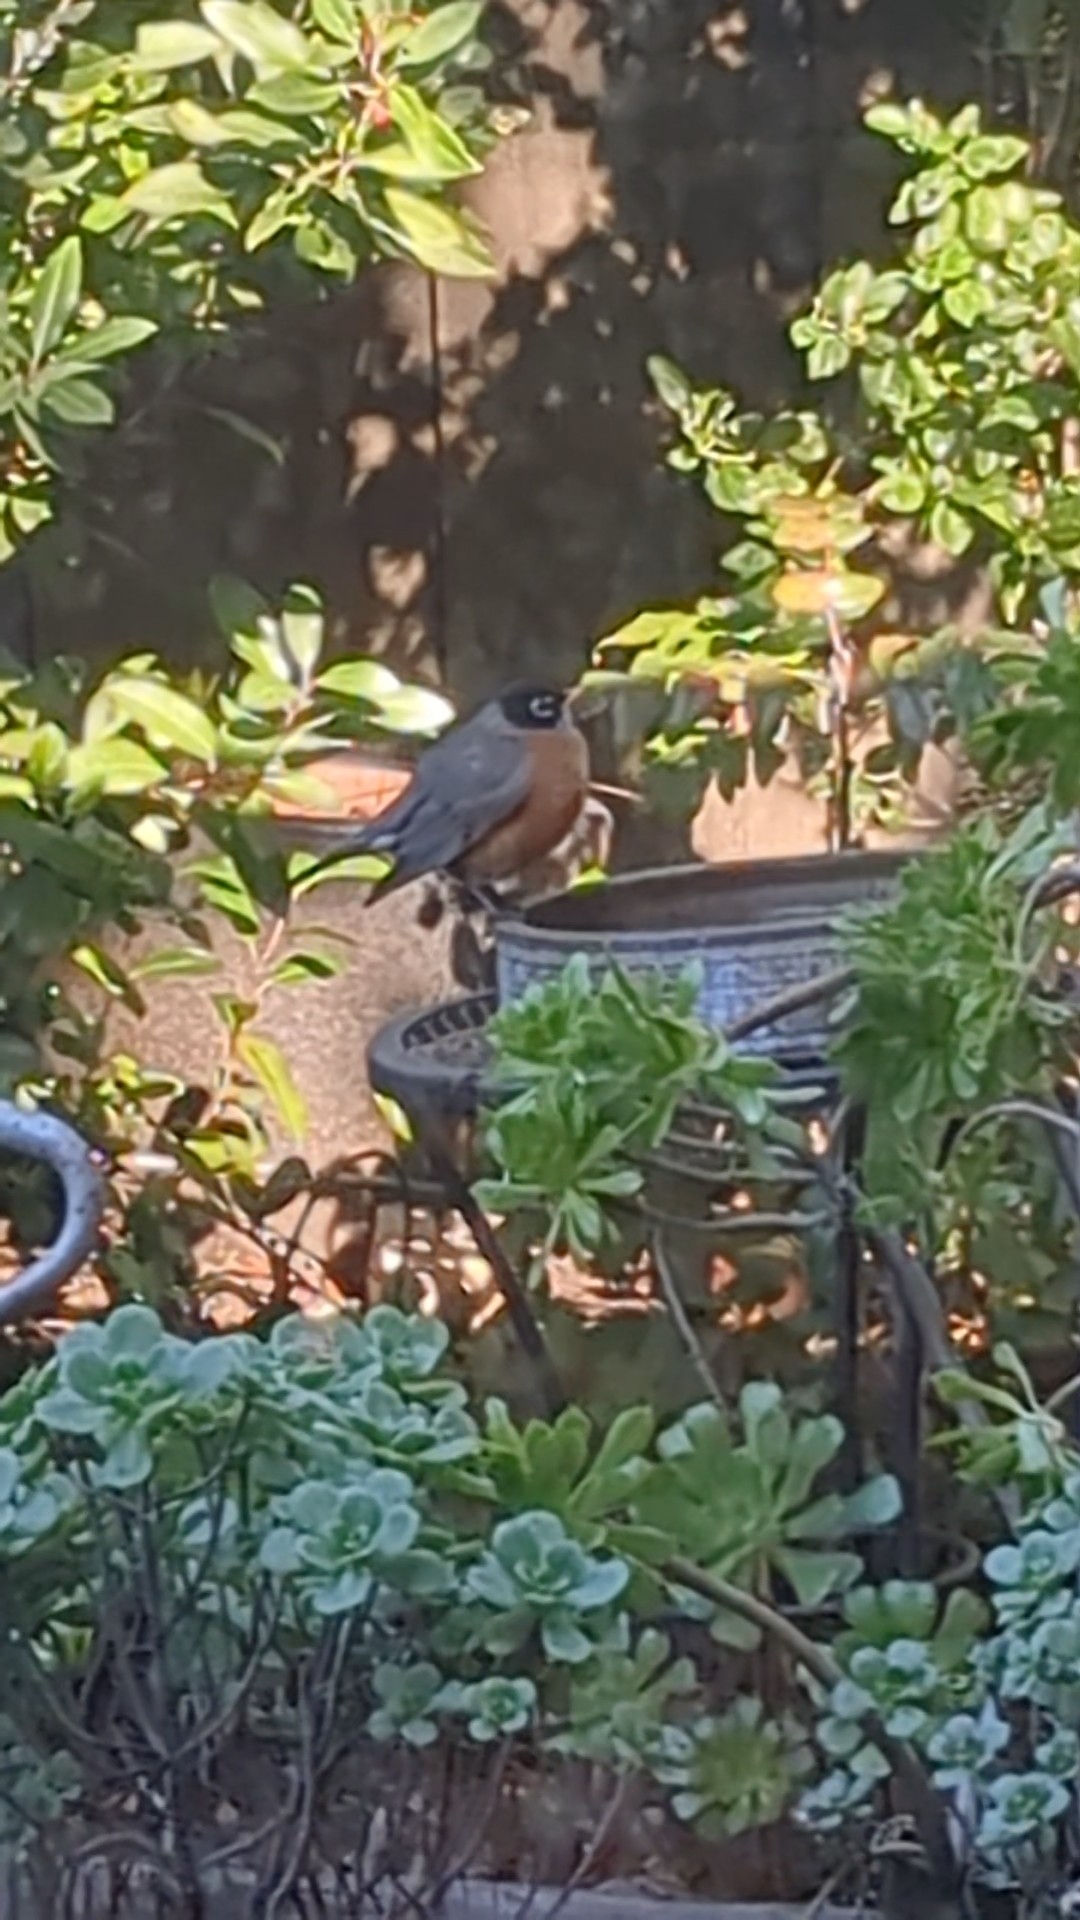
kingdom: Animalia
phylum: Chordata
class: Aves
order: Passeriformes
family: Turdidae
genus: Turdus
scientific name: Turdus migratorius
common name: American robin
